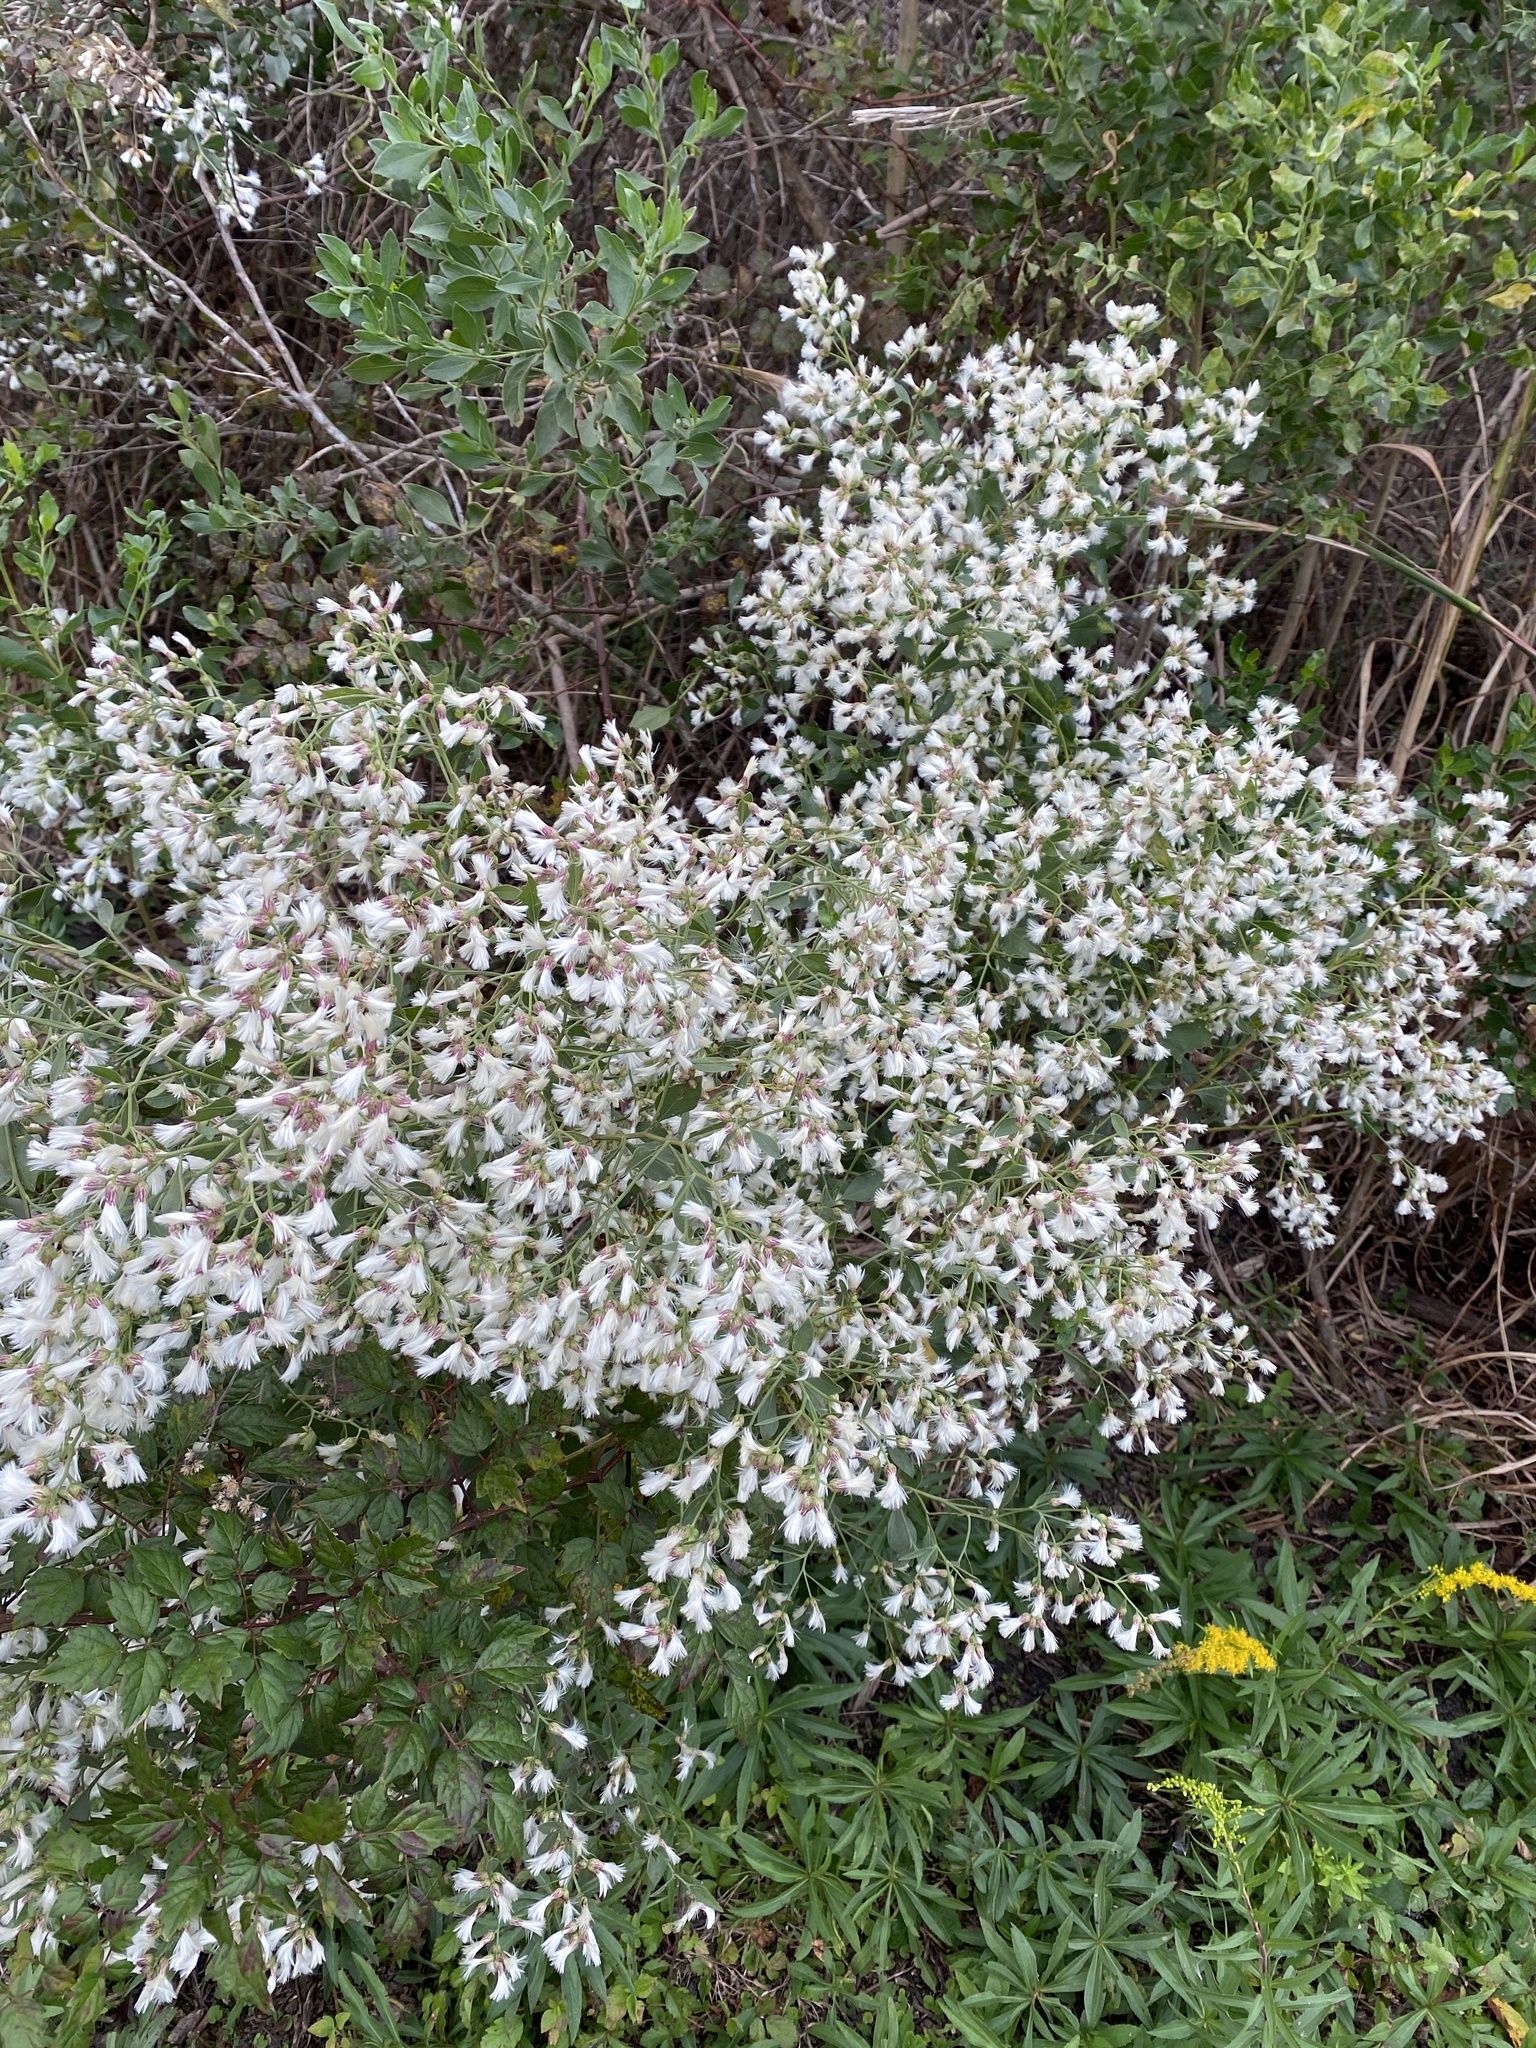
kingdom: Plantae
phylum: Tracheophyta
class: Magnoliopsida
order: Asterales
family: Asteraceae
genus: Baccharis
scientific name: Baccharis halimifolia
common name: Eastern baccharis
